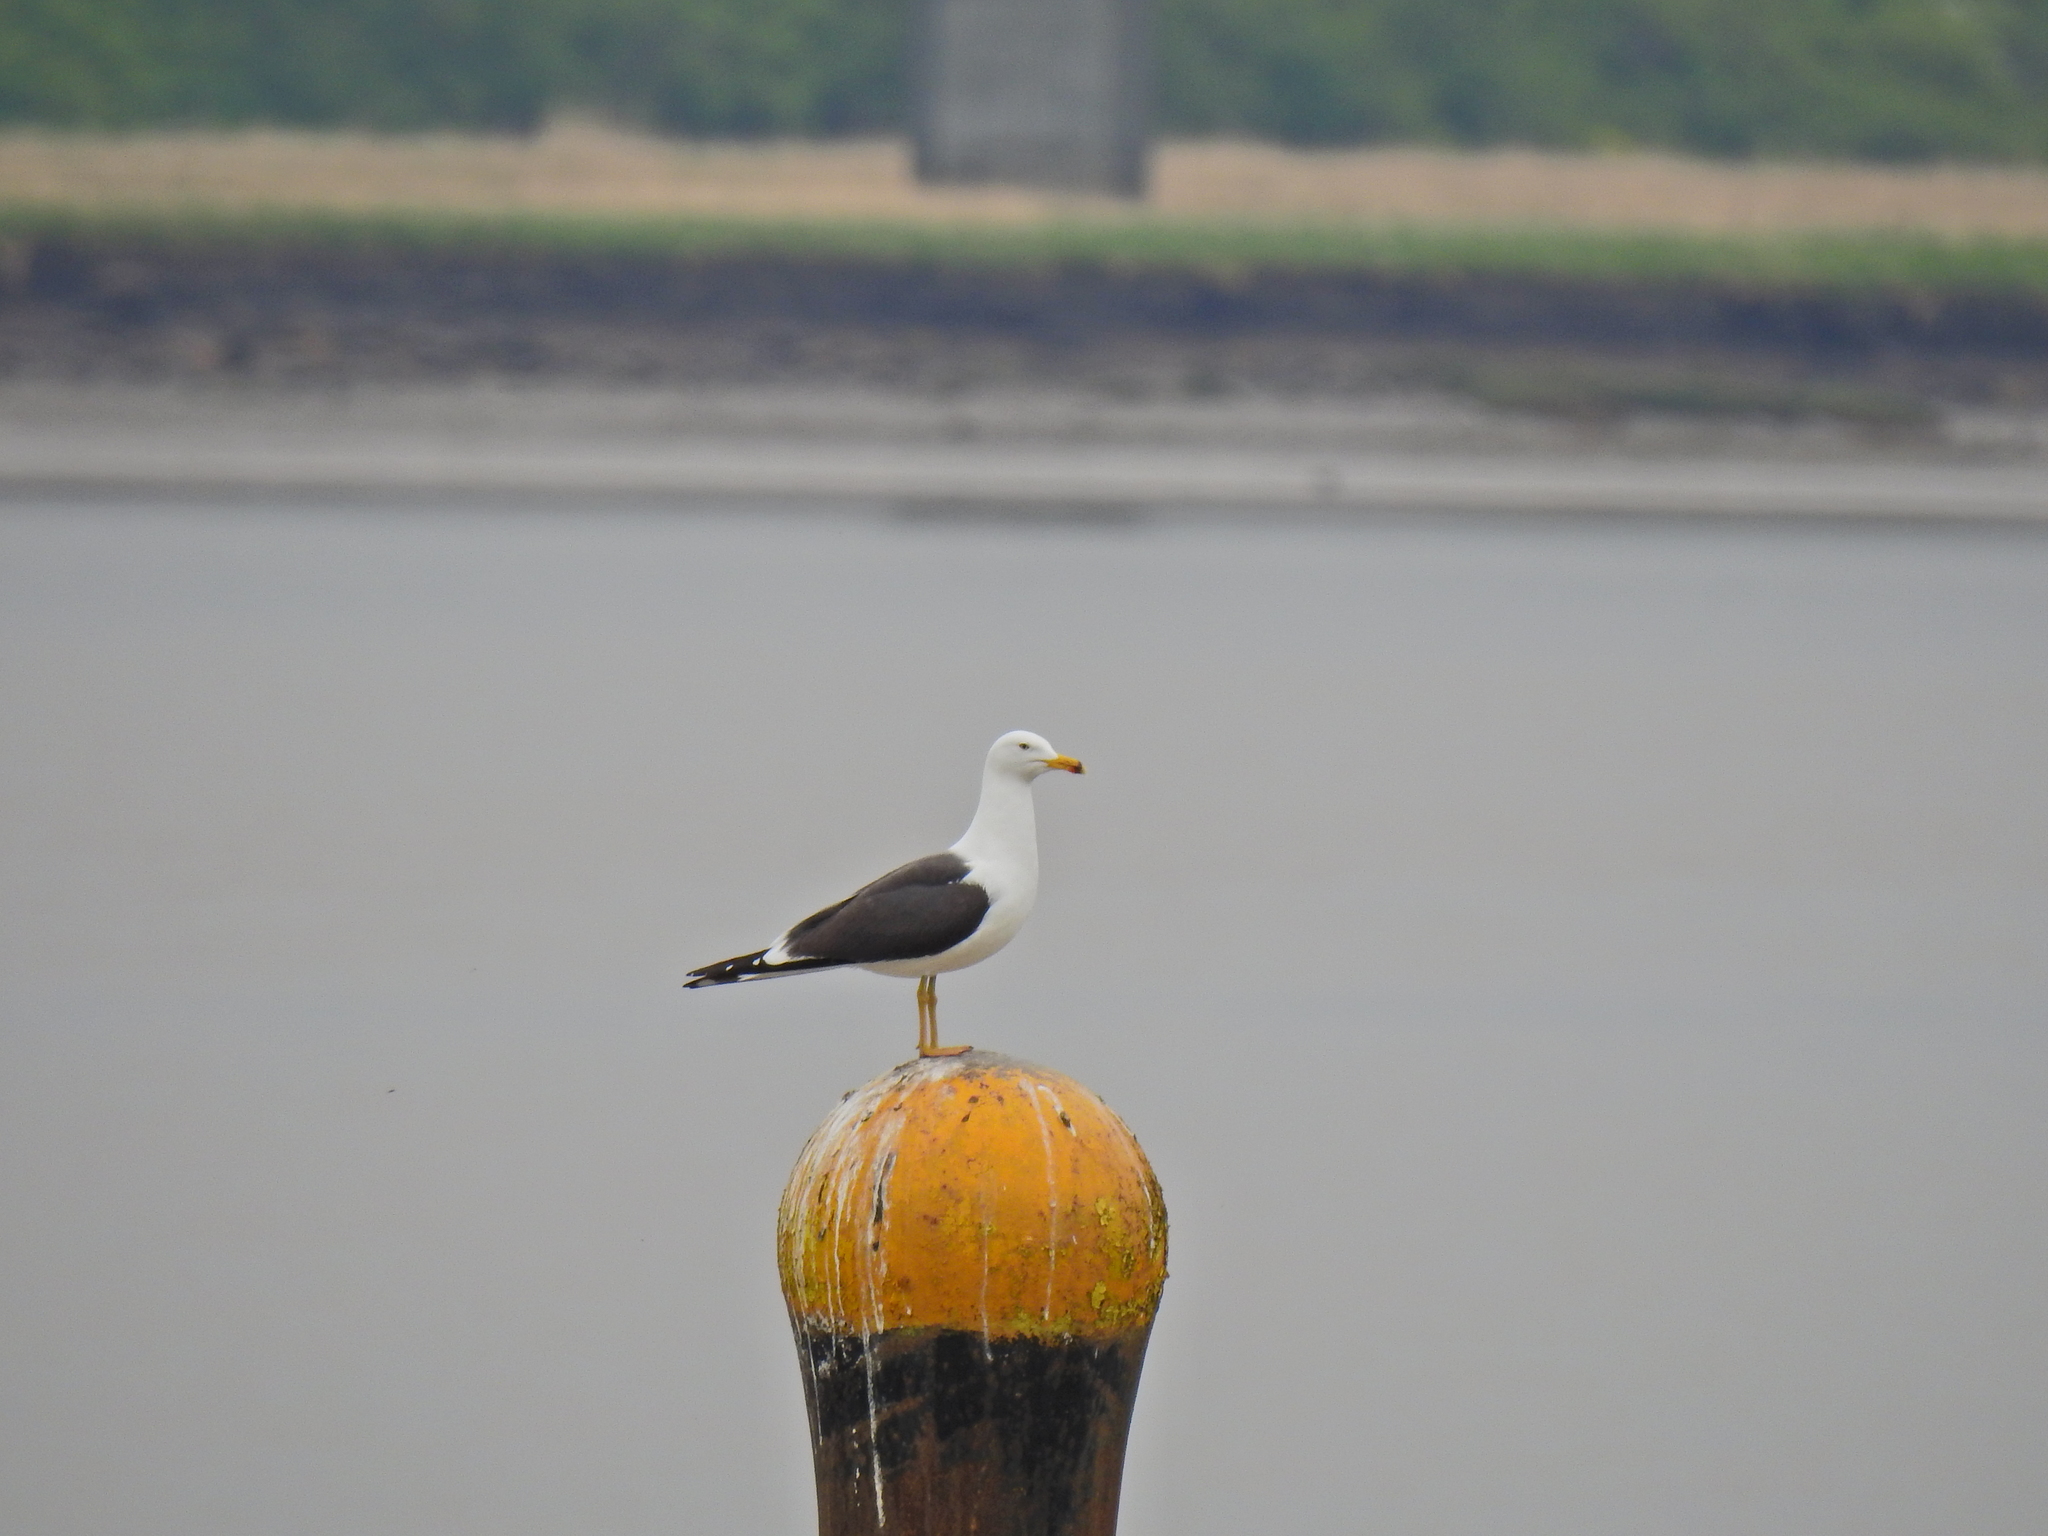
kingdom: Animalia
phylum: Chordata
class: Aves
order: Charadriiformes
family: Laridae
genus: Larus
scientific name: Larus fuscus
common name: Lesser black-backed gull
